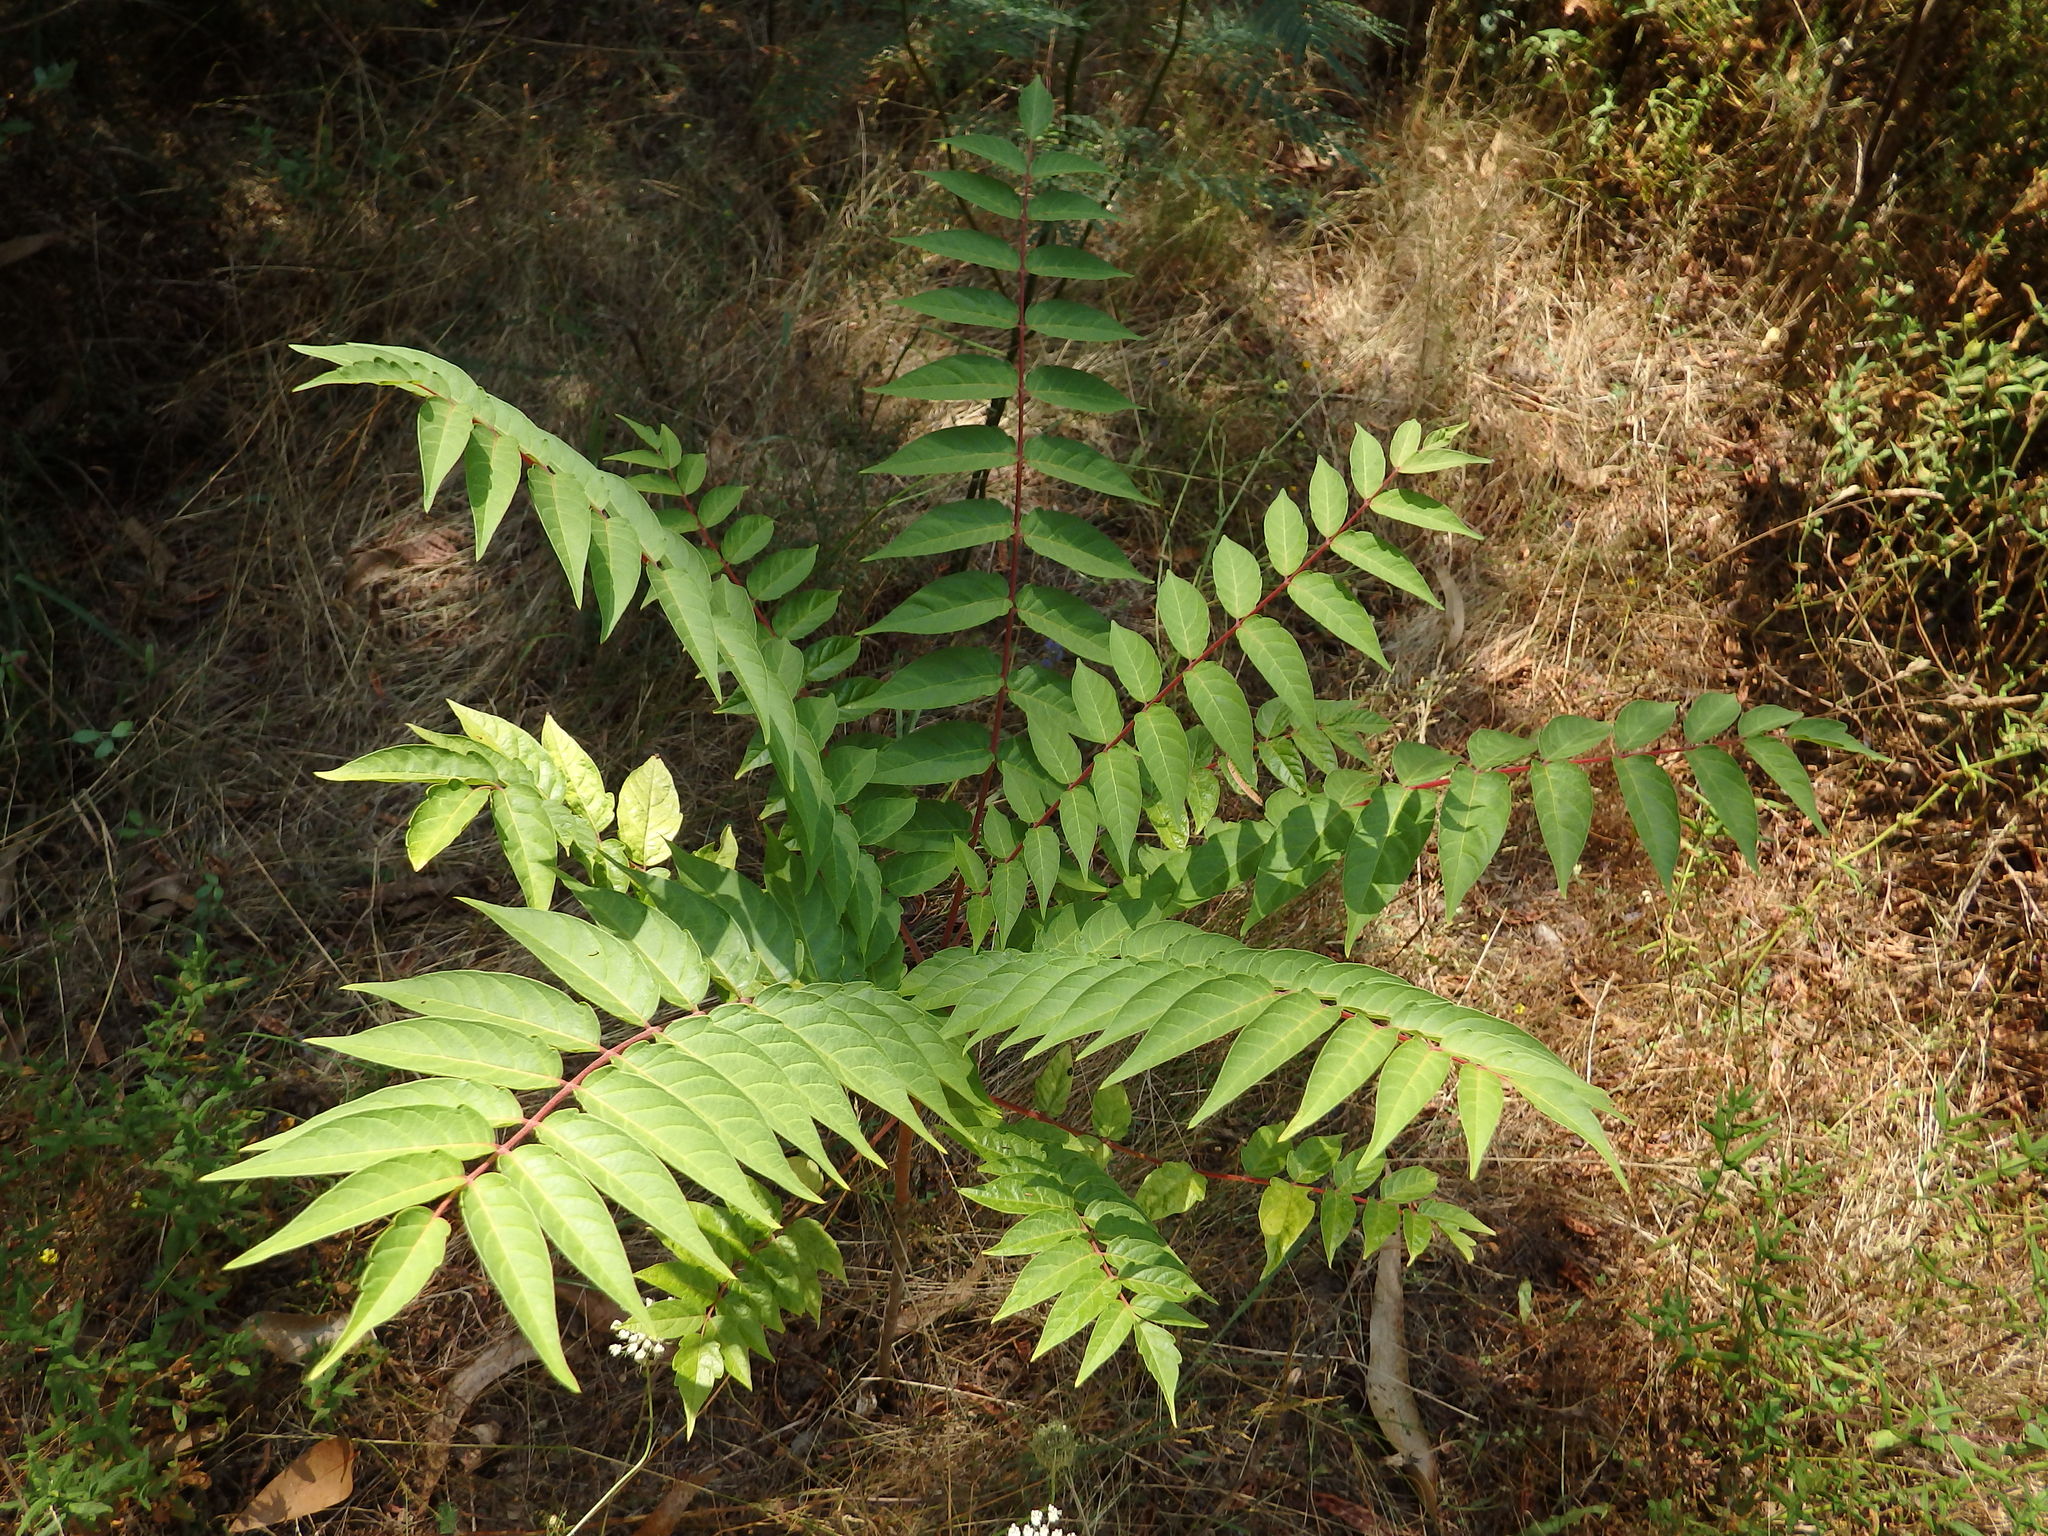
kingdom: Plantae
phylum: Tracheophyta
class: Magnoliopsida
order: Sapindales
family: Simaroubaceae
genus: Ailanthus
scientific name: Ailanthus altissima
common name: Tree-of-heaven
